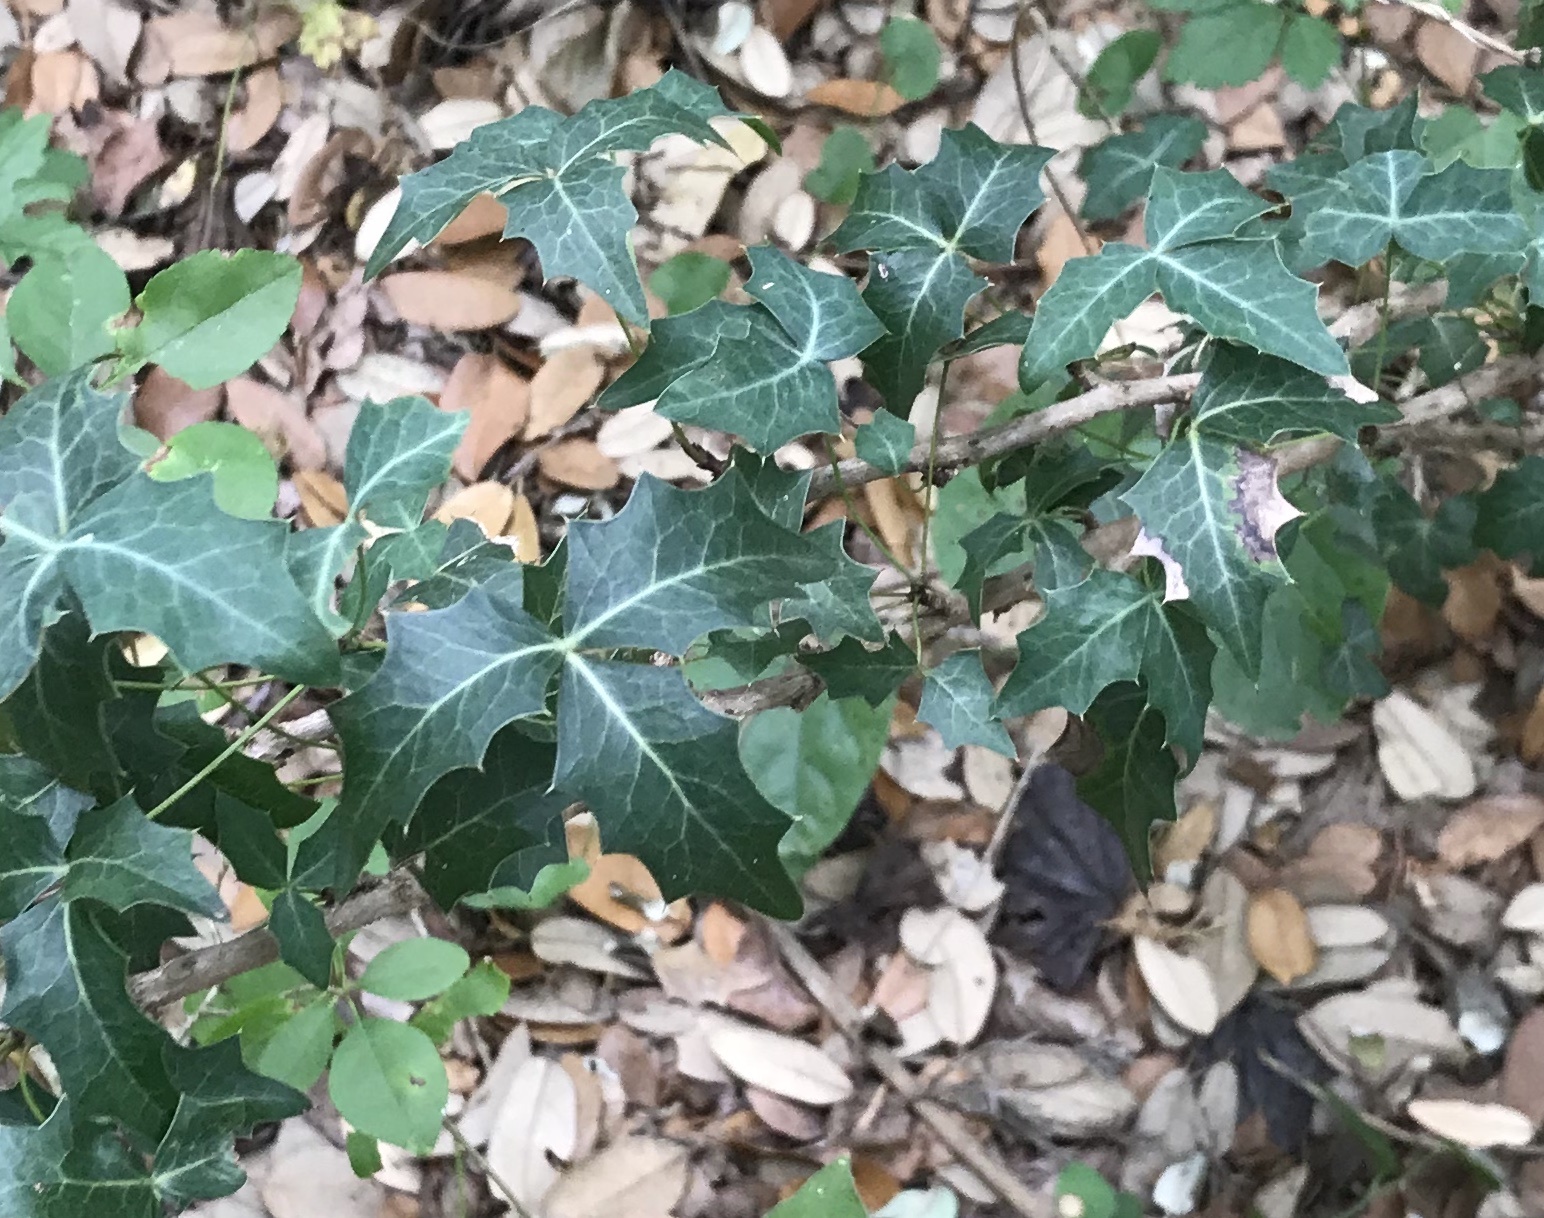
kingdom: Plantae
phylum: Tracheophyta
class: Magnoliopsida
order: Ranunculales
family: Berberidaceae
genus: Alloberberis
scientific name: Alloberberis trifoliolata
